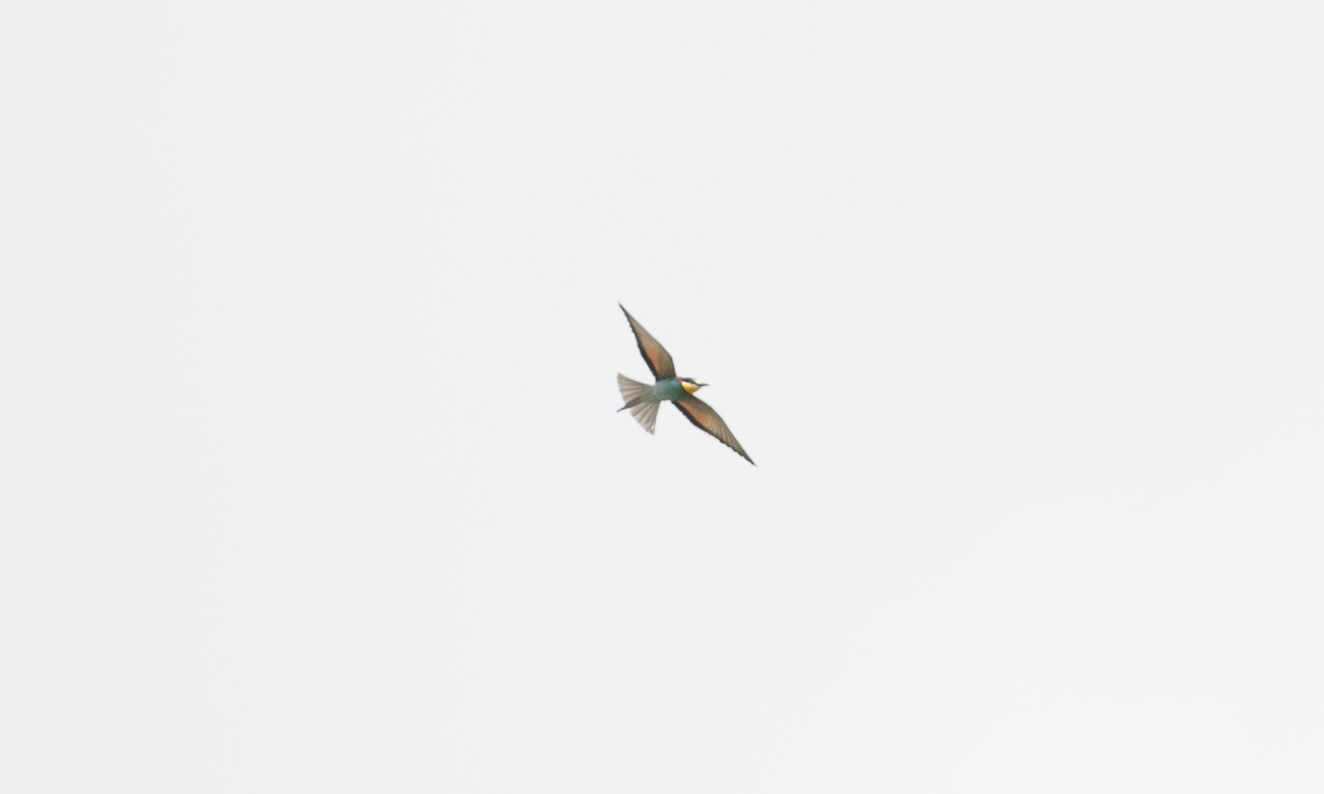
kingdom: Animalia
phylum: Chordata
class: Aves
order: Coraciiformes
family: Meropidae
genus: Merops
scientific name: Merops apiaster
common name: European bee-eater
